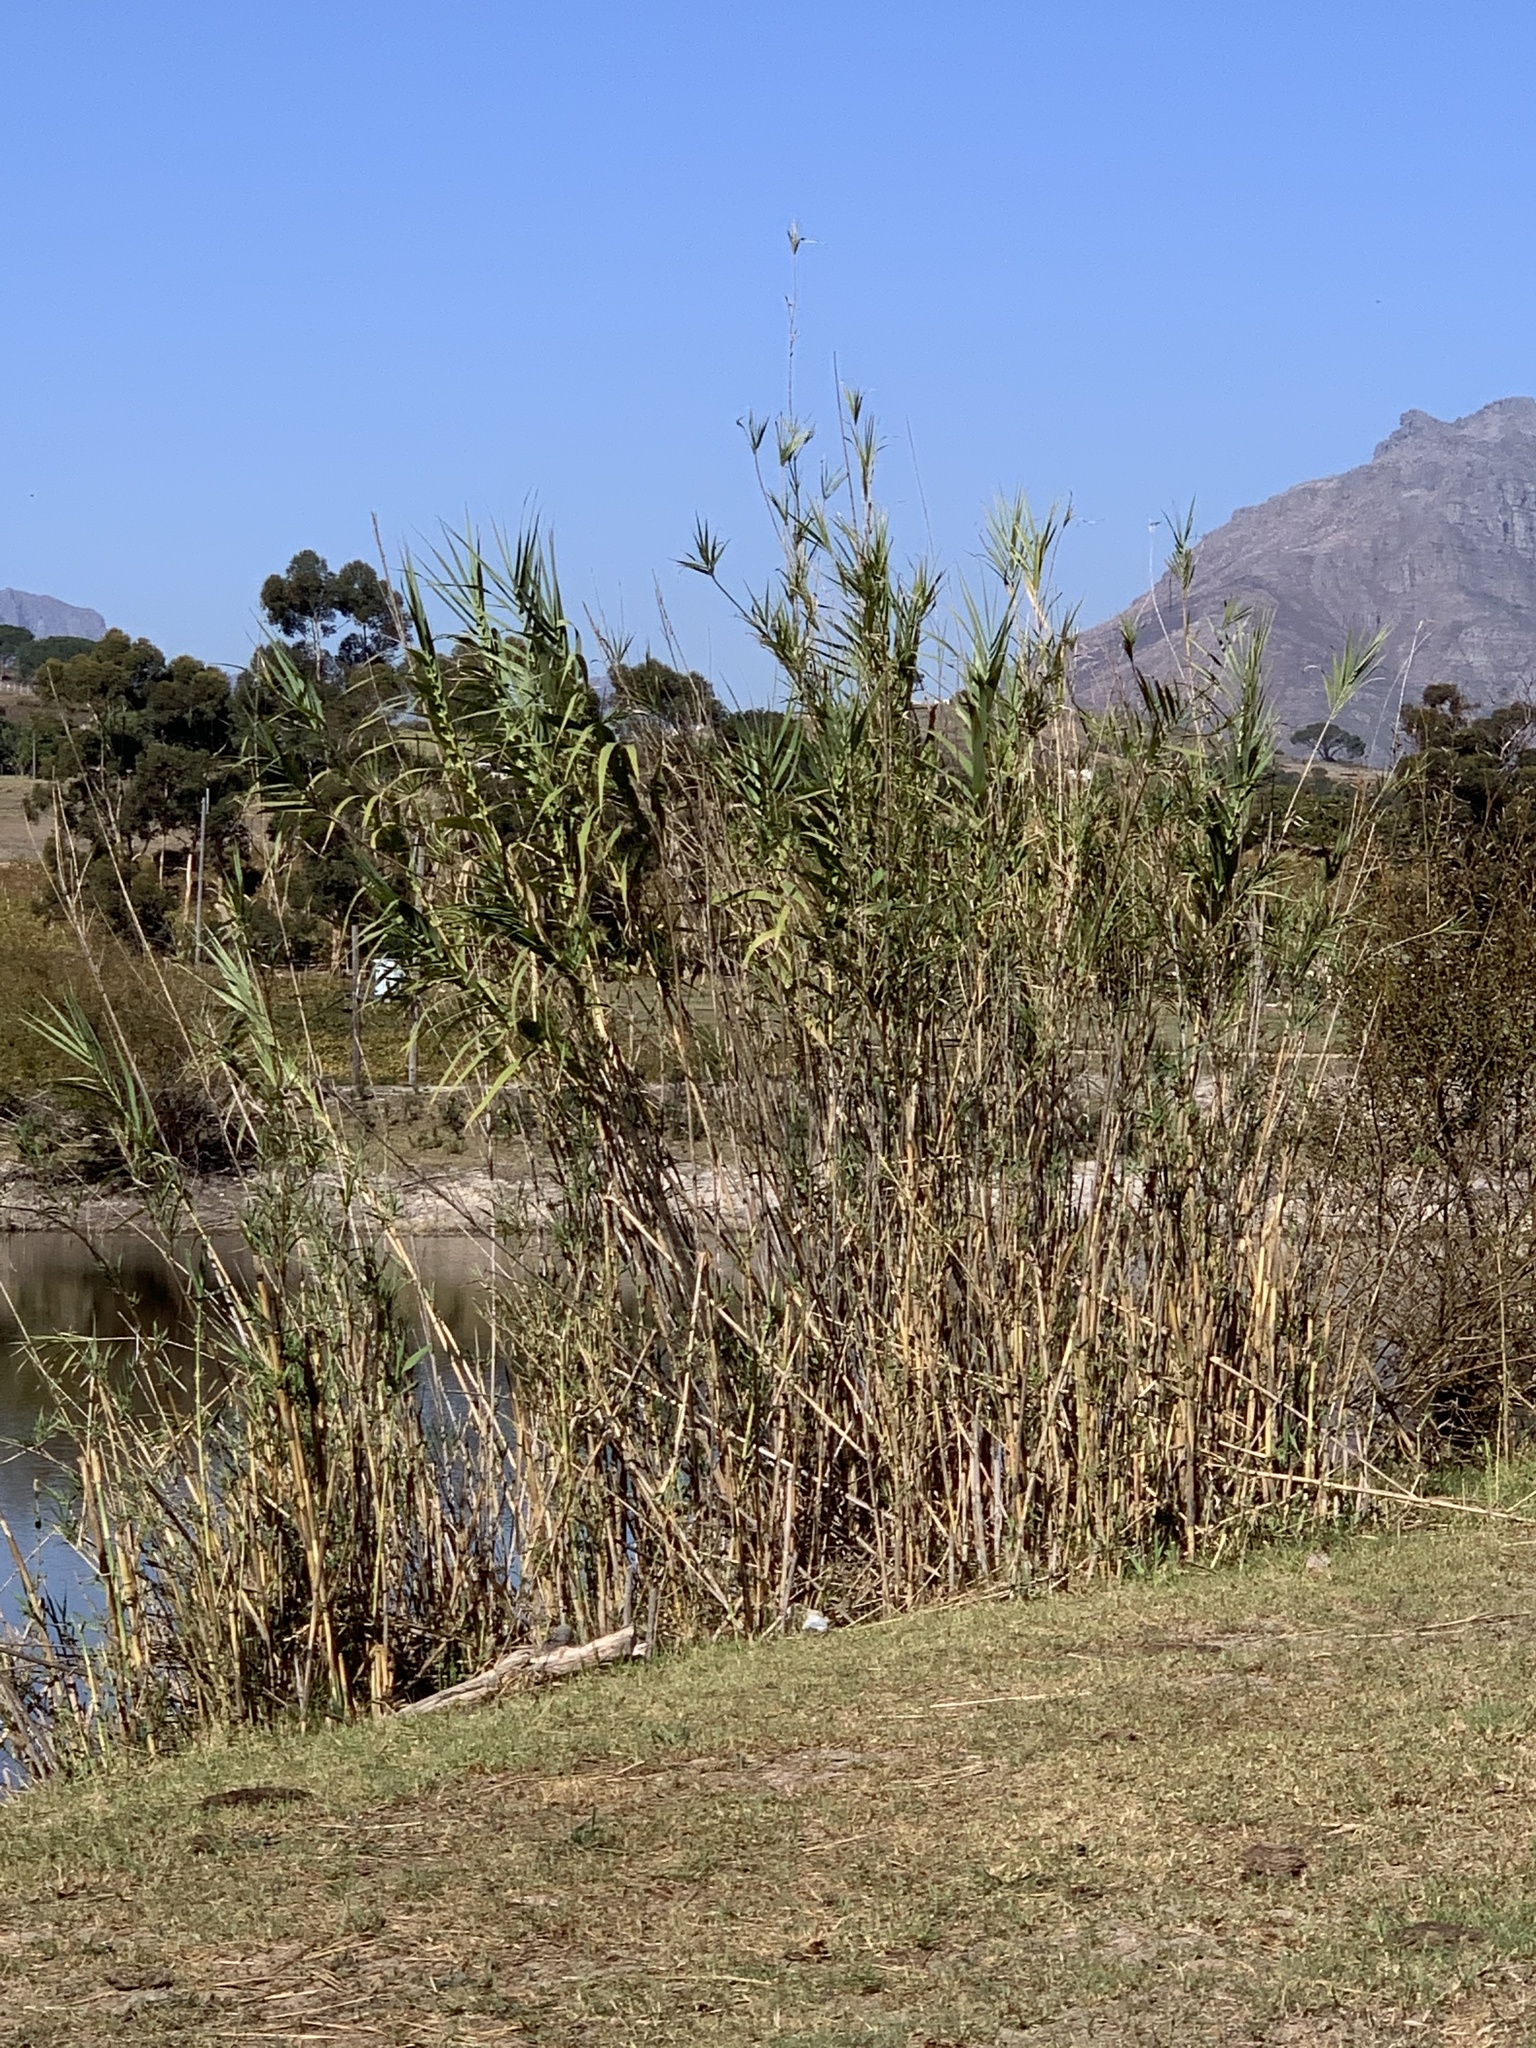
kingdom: Plantae
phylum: Tracheophyta
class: Liliopsida
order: Poales
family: Poaceae
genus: Arundo
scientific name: Arundo donax
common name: Giant reed
